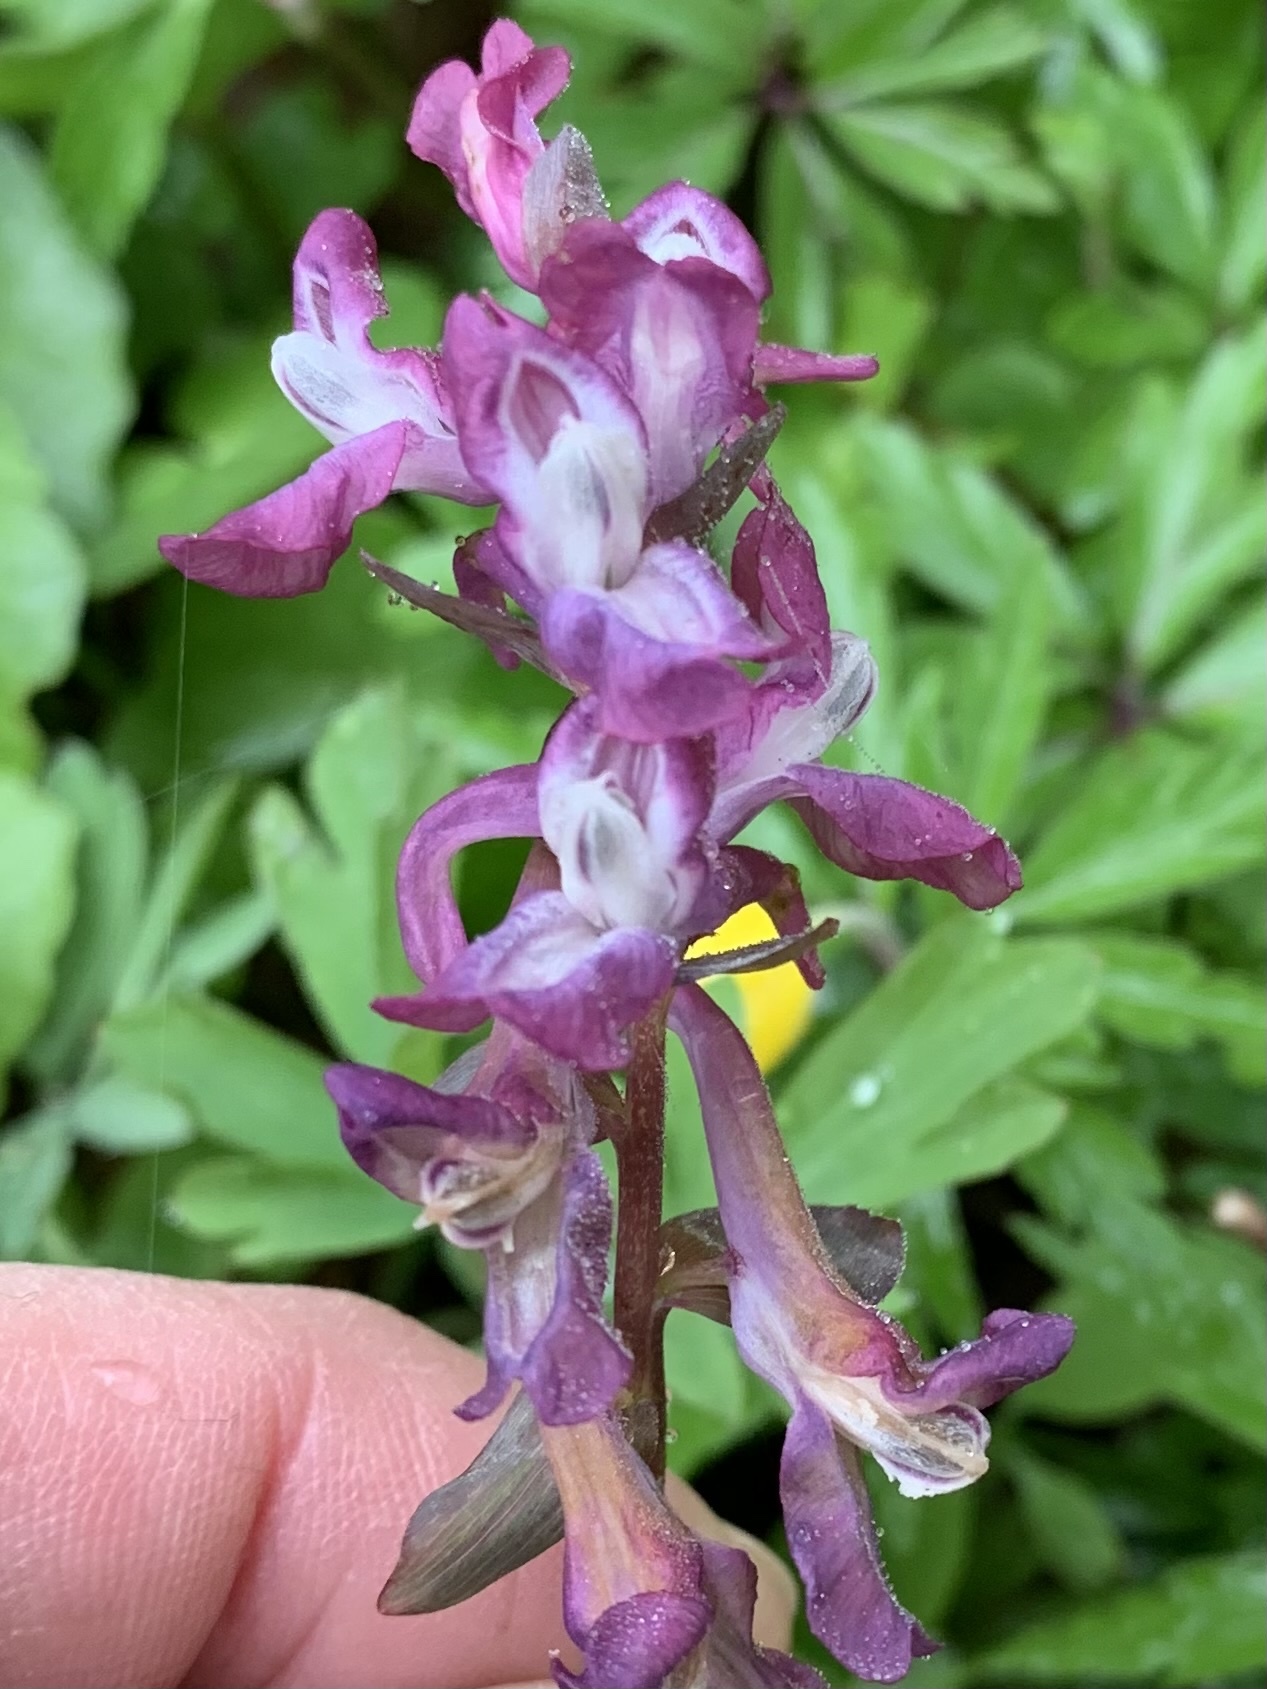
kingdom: Plantae
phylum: Tracheophyta
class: Magnoliopsida
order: Ranunculales
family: Papaveraceae
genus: Corydalis
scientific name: Corydalis cava
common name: Hollowroot
